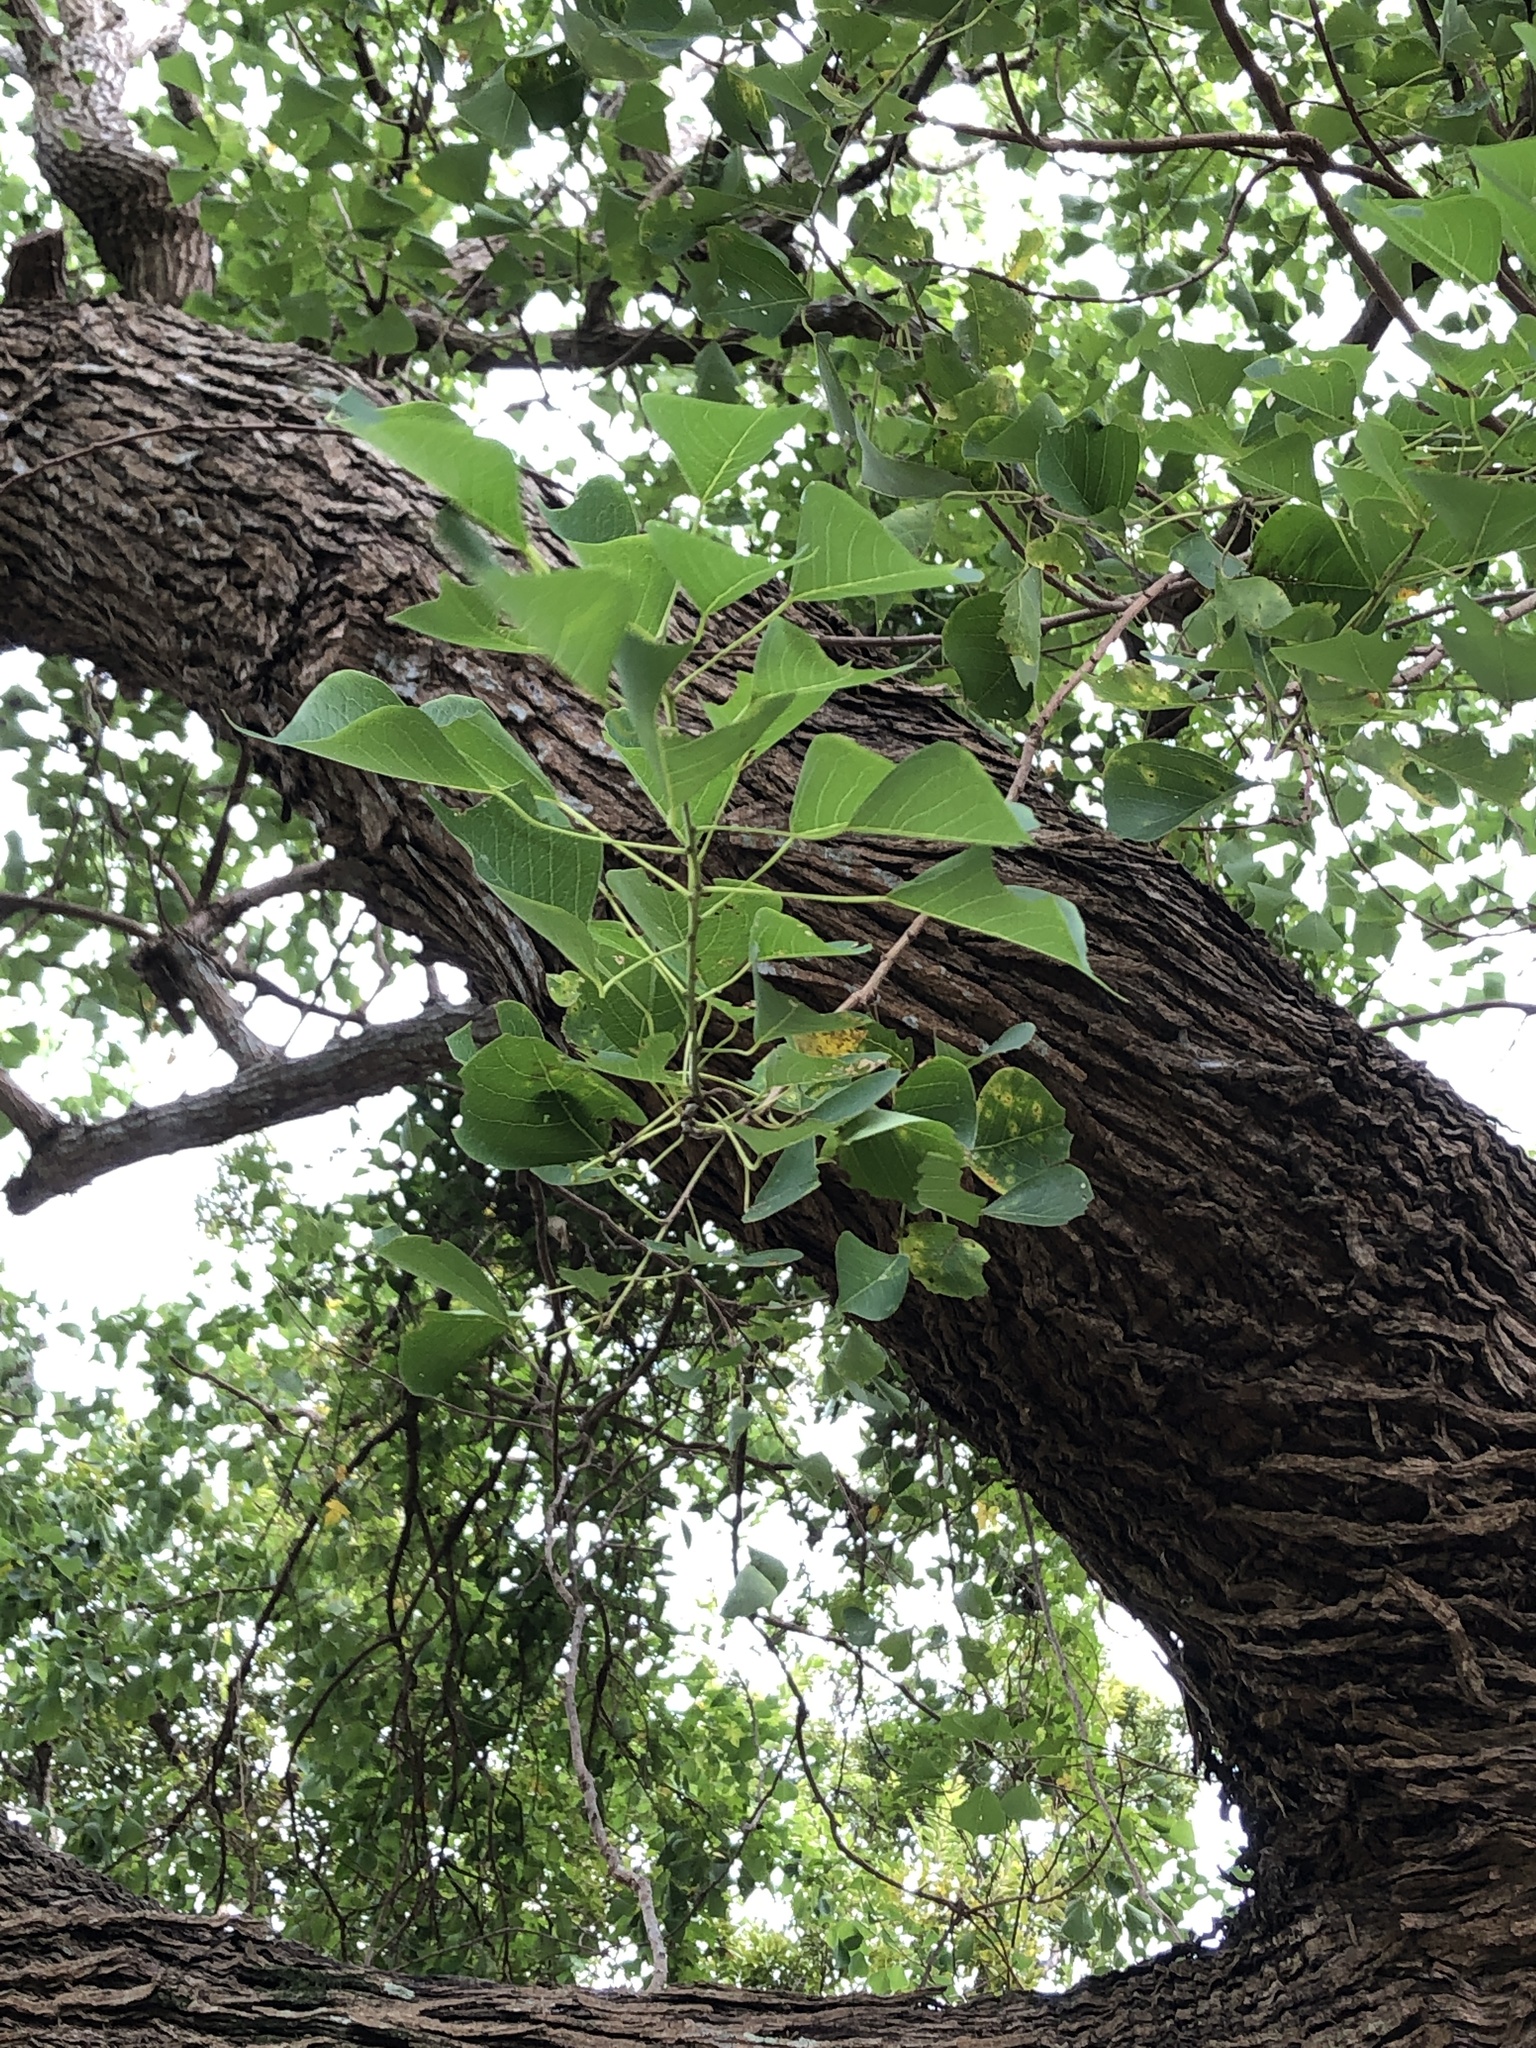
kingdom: Plantae
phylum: Tracheophyta
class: Magnoliopsida
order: Malpighiales
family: Euphorbiaceae
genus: Triadica
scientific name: Triadica sebifera
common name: Chinese tallow
